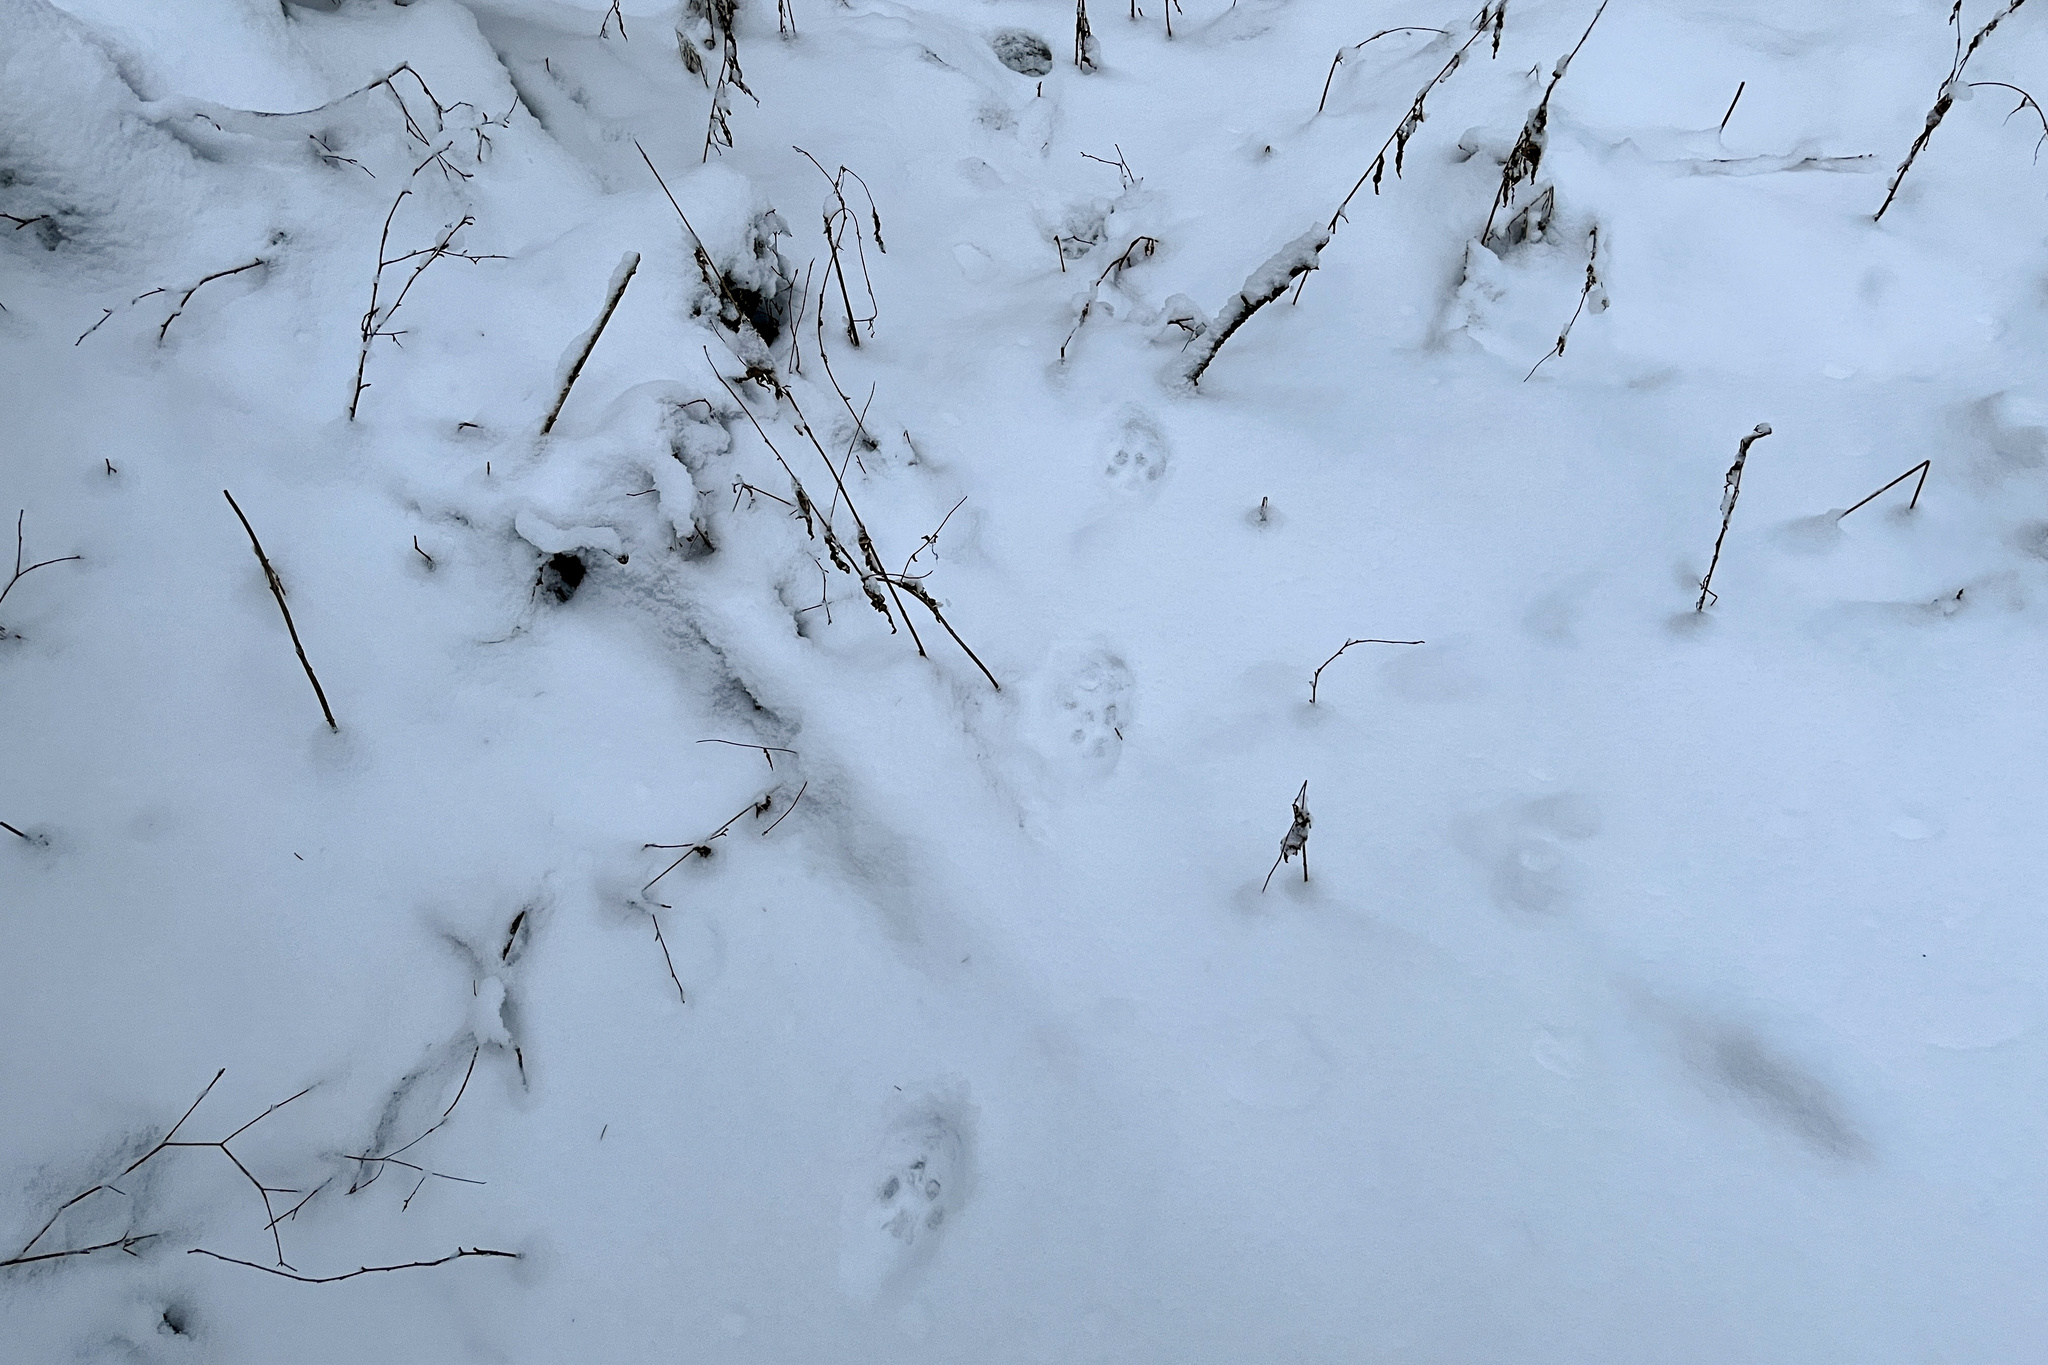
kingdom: Animalia
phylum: Chordata
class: Mammalia
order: Carnivora
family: Felidae
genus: Lynx
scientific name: Lynx lynx
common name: Eurasian lynx
